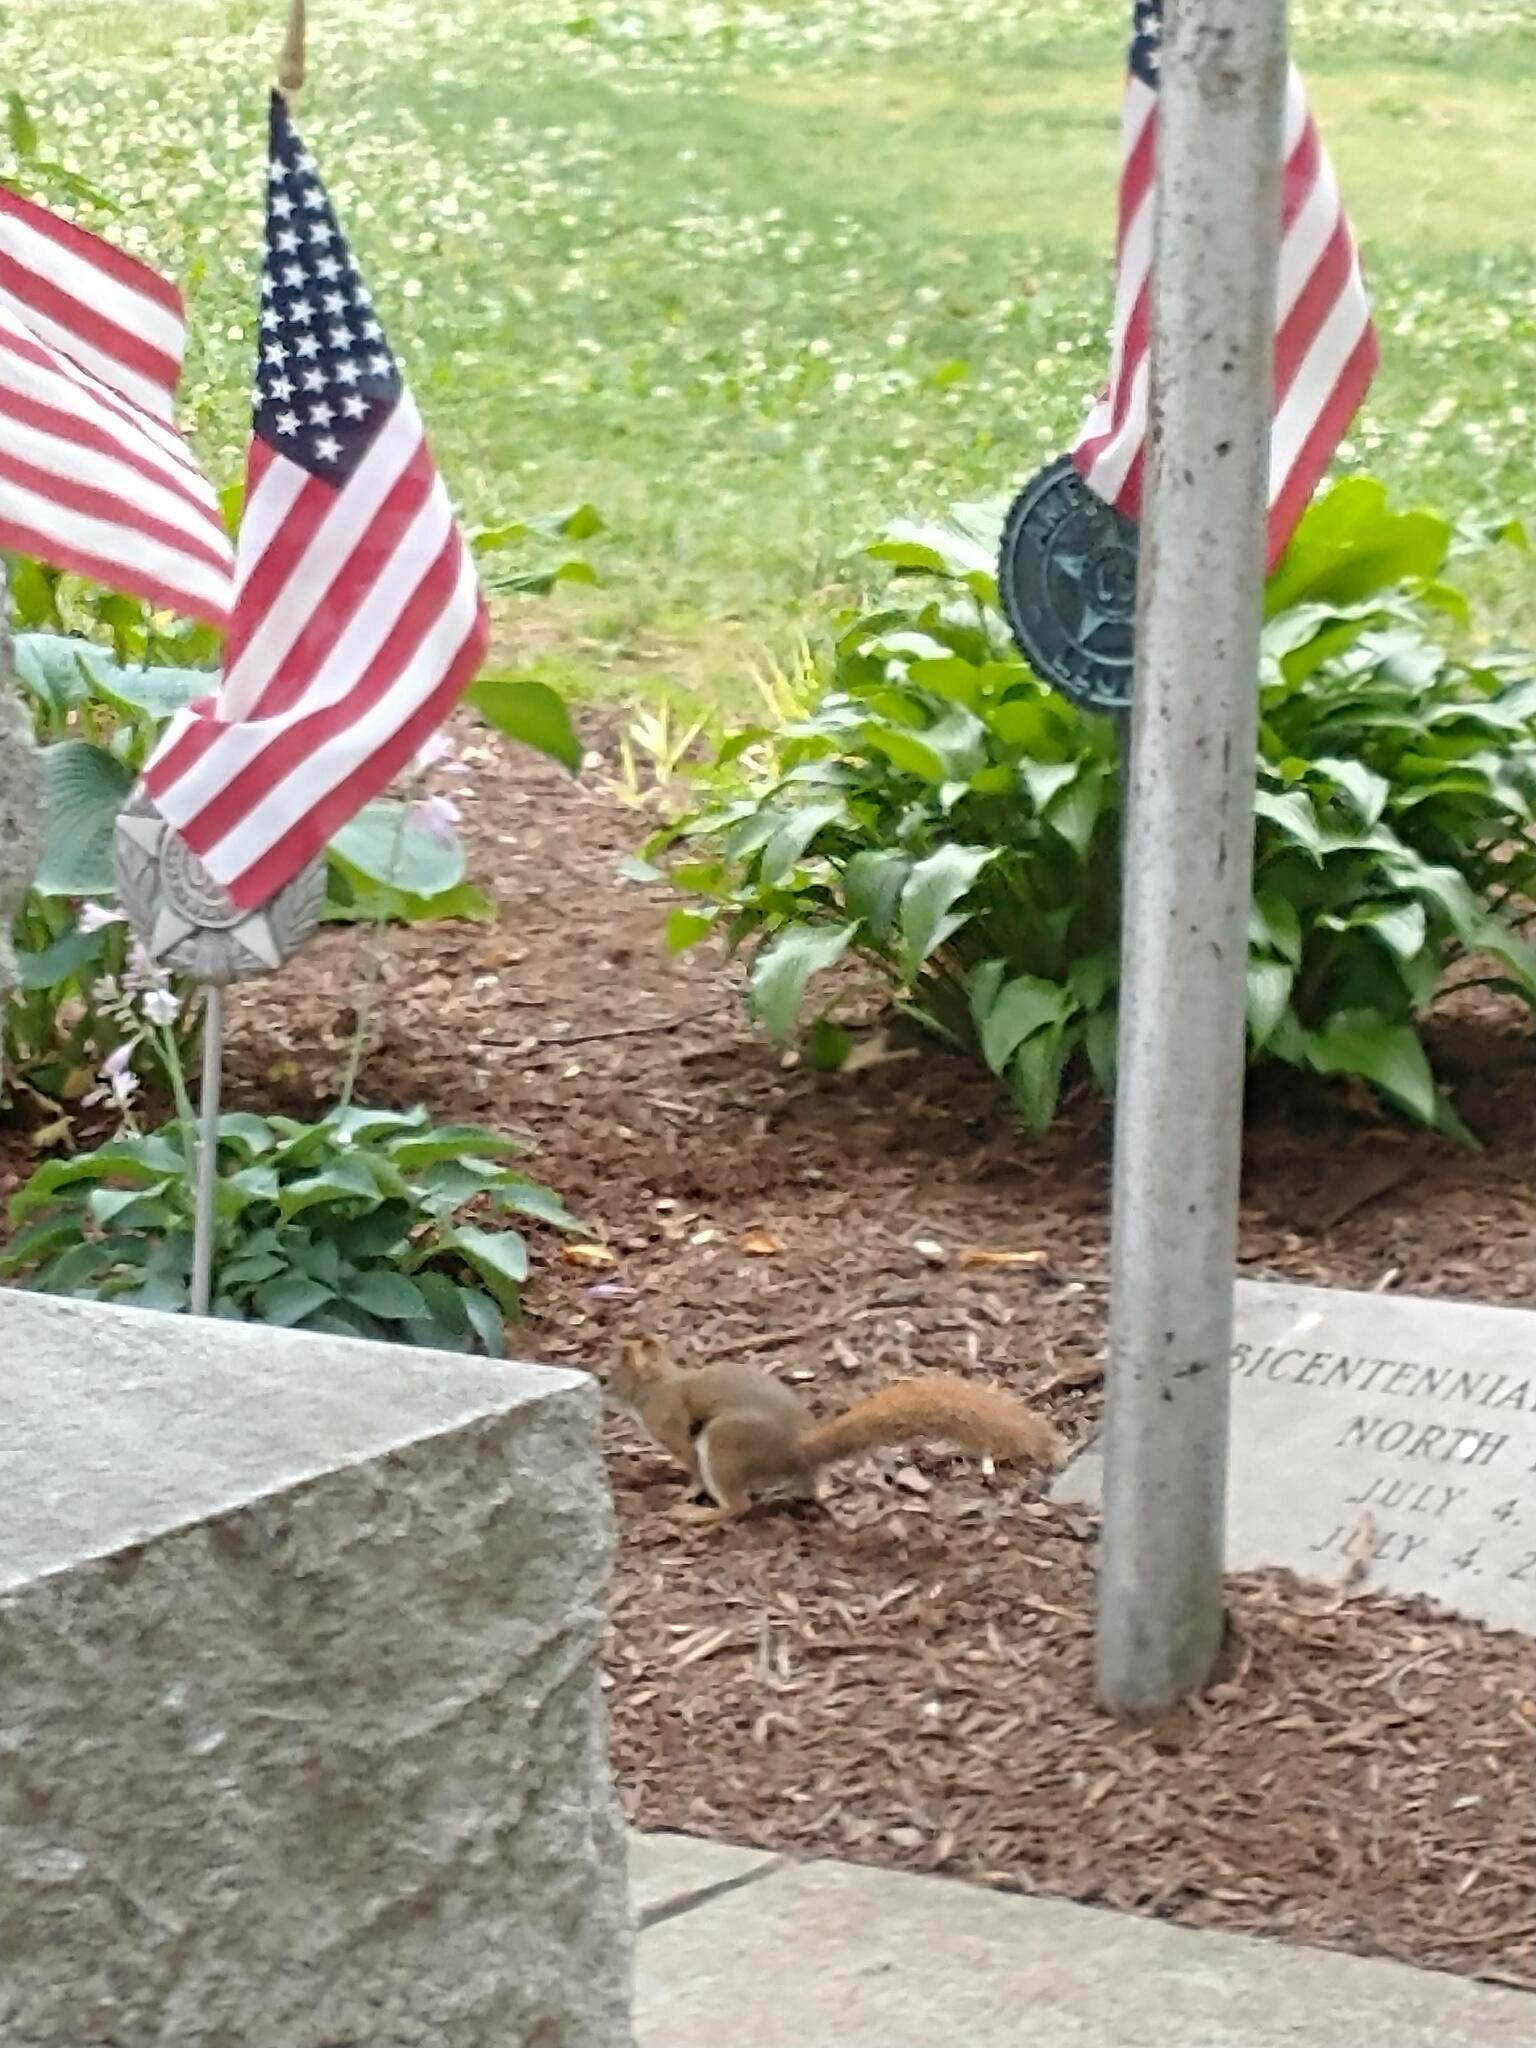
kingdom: Animalia
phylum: Chordata
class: Mammalia
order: Rodentia
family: Sciuridae
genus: Tamiasciurus
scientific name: Tamiasciurus hudsonicus
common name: Red squirrel
